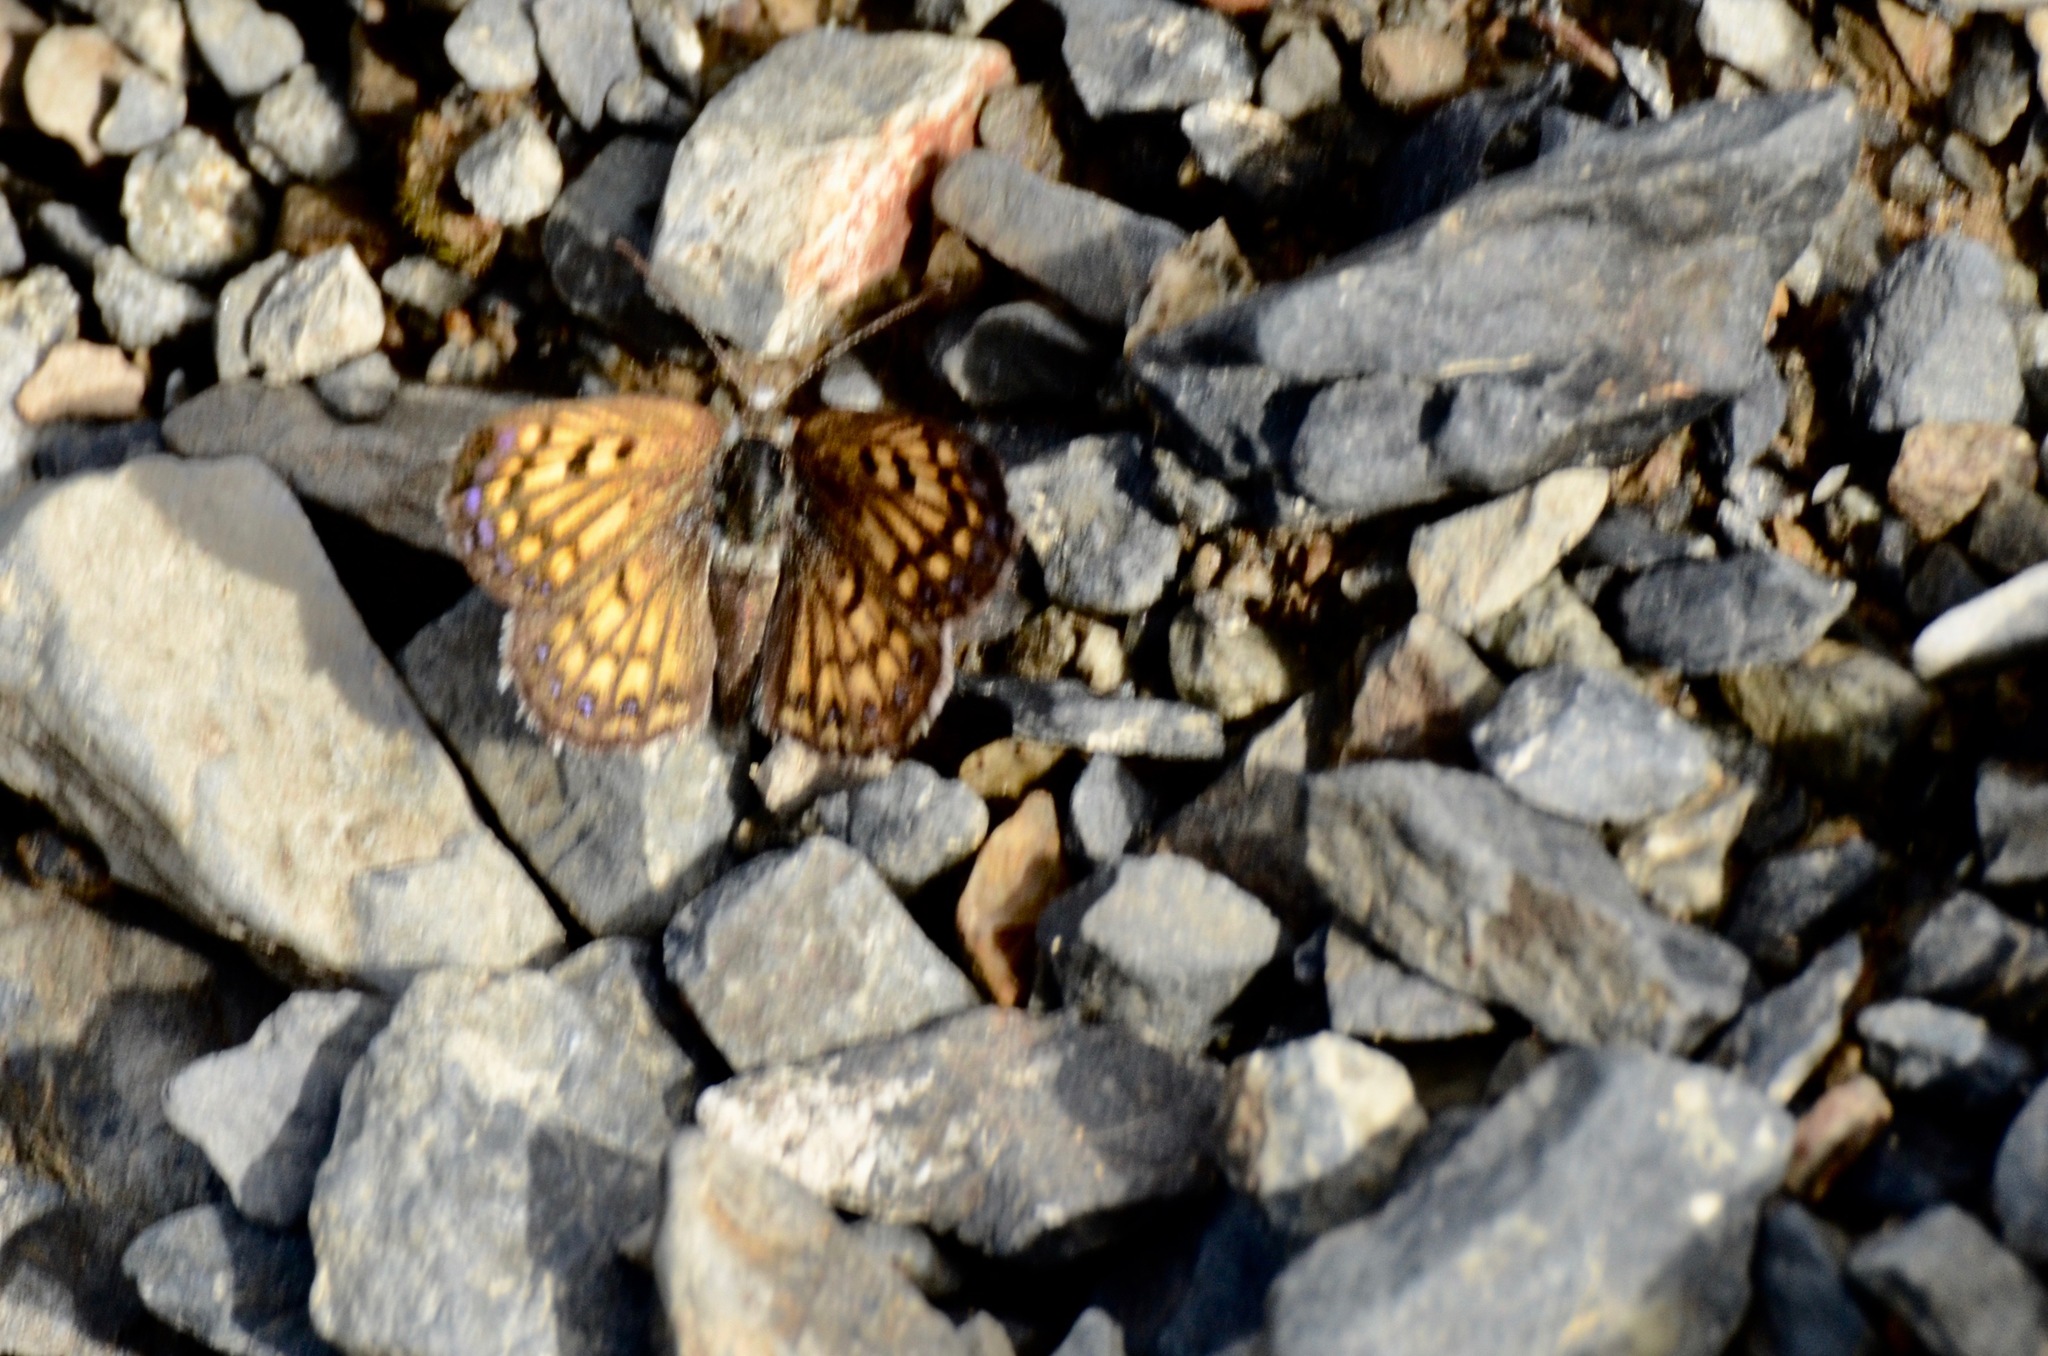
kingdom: Animalia
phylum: Arthropoda
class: Insecta
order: Lepidoptera
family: Lycaenidae
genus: Lycaena
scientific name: Lycaena boldenarum
